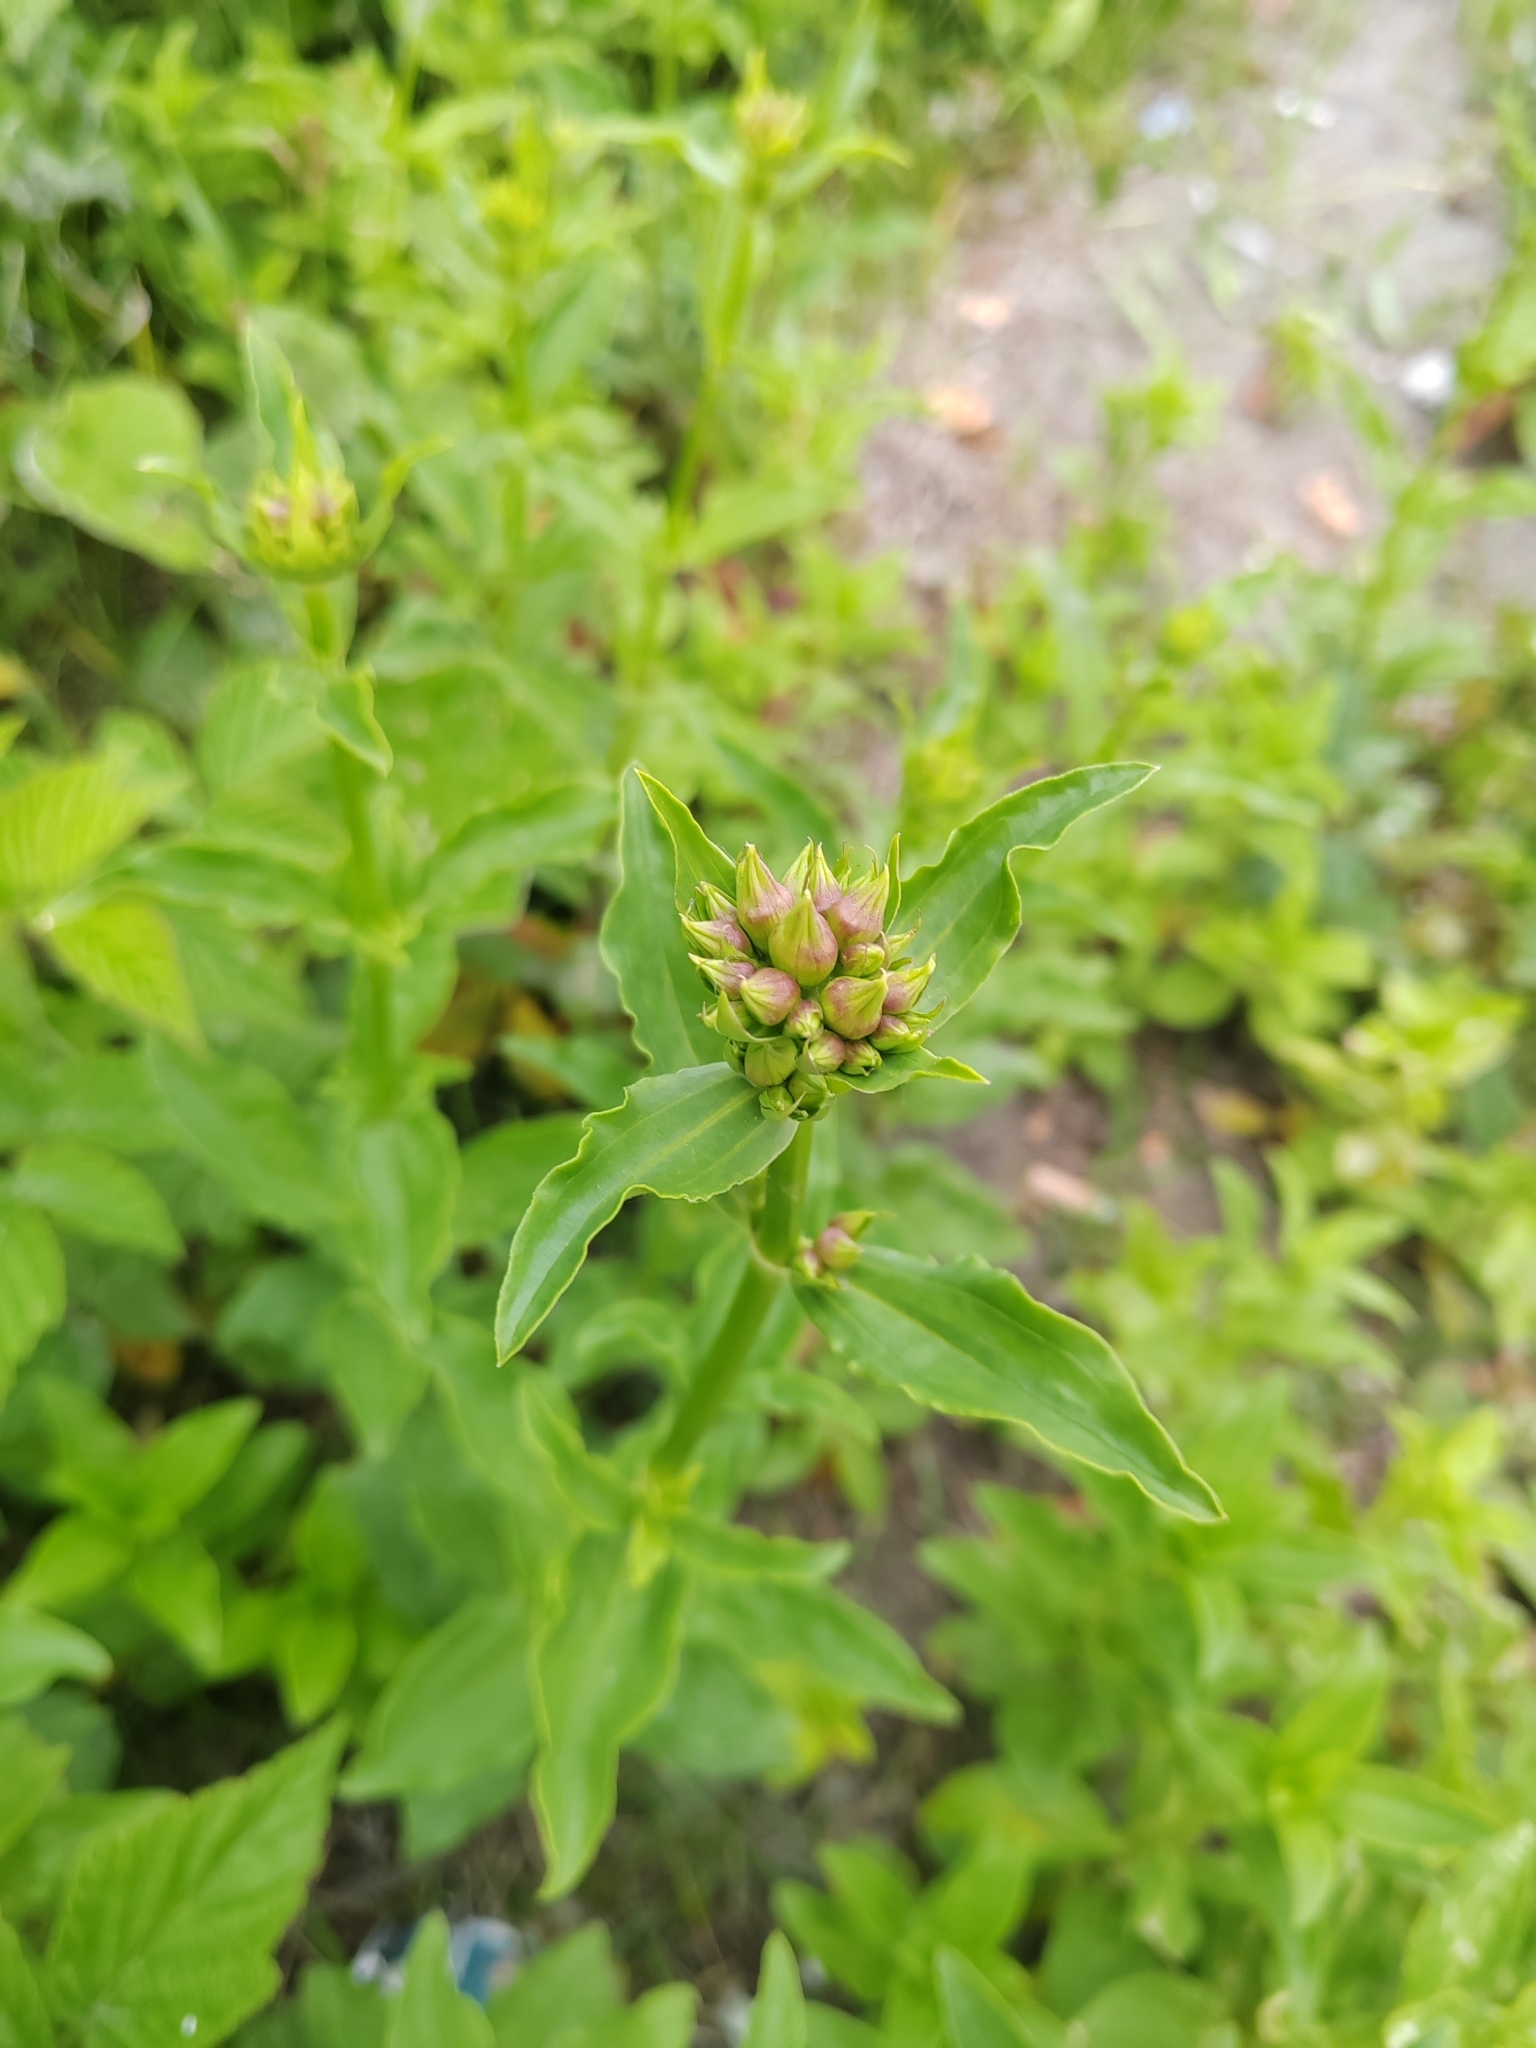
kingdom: Plantae
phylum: Tracheophyta
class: Magnoliopsida
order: Caryophyllales
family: Caryophyllaceae
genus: Saponaria
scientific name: Saponaria officinalis
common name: Soapwort
